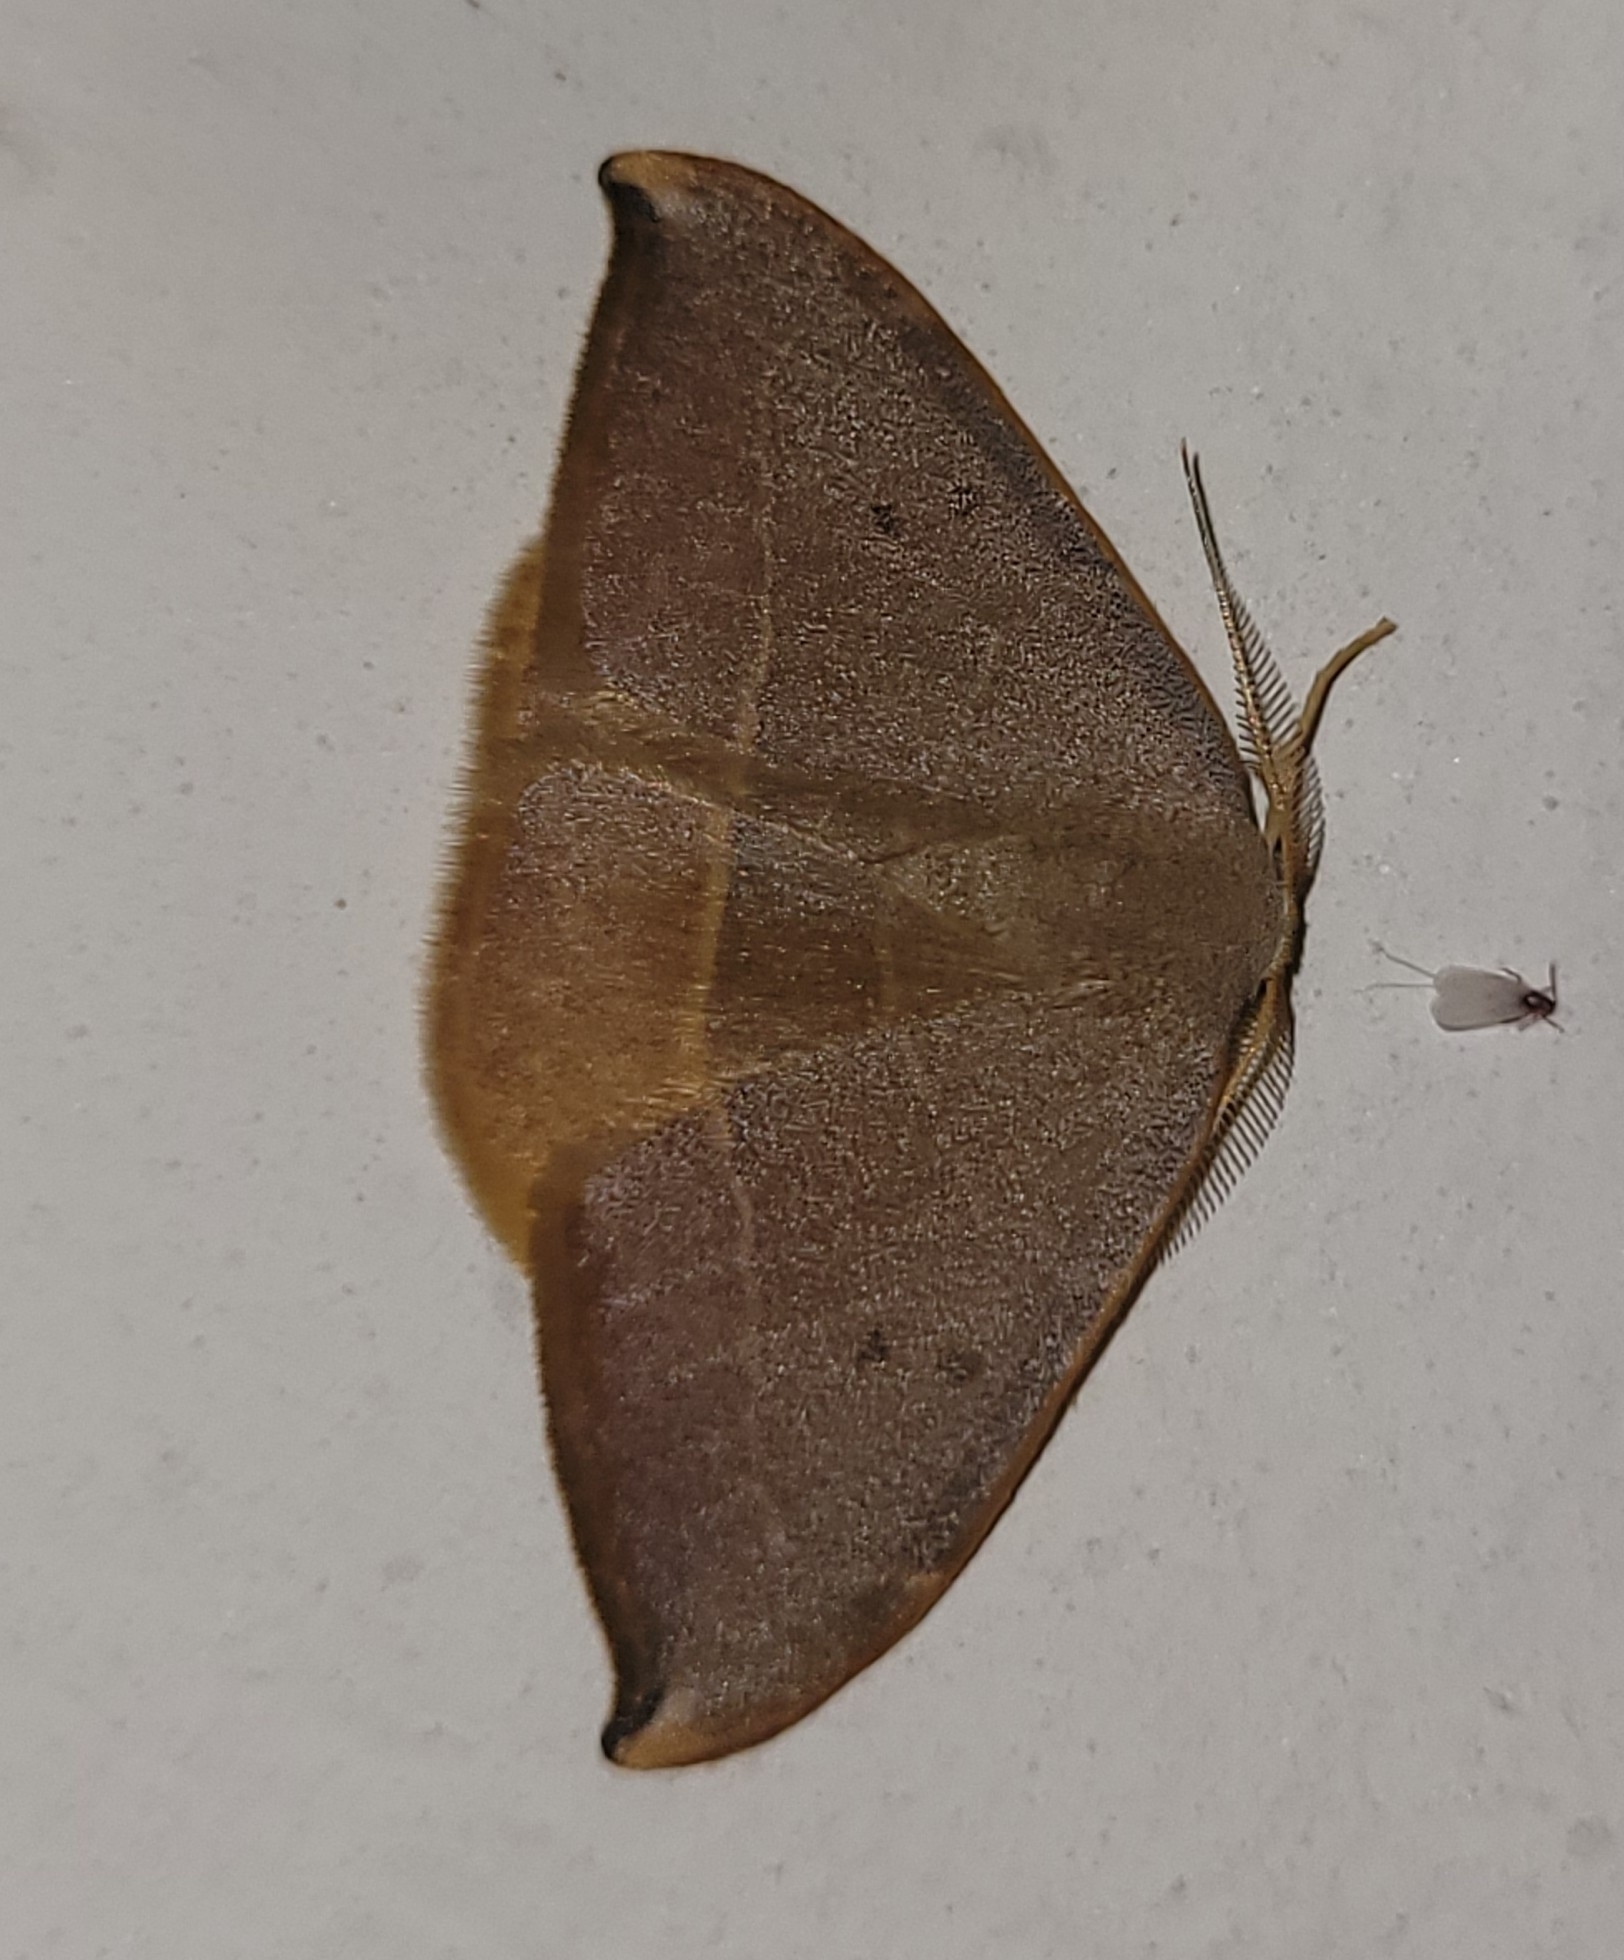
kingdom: Animalia
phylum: Arthropoda
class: Insecta
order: Lepidoptera
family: Drepanidae
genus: Watsonalla
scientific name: Watsonalla uncinula
